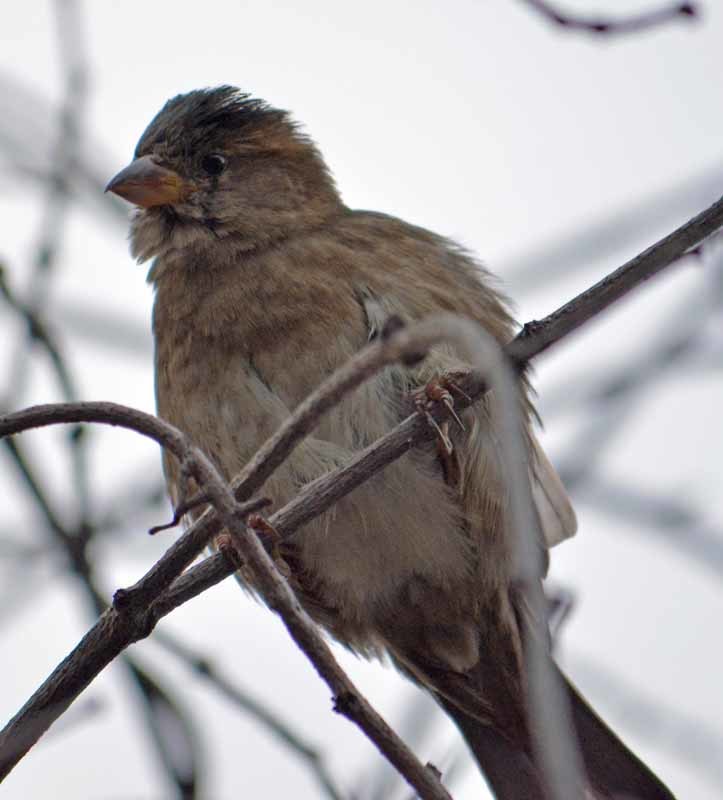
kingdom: Animalia
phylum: Chordata
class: Aves
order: Passeriformes
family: Passeridae
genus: Passer
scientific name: Passer domesticus
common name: House sparrow
